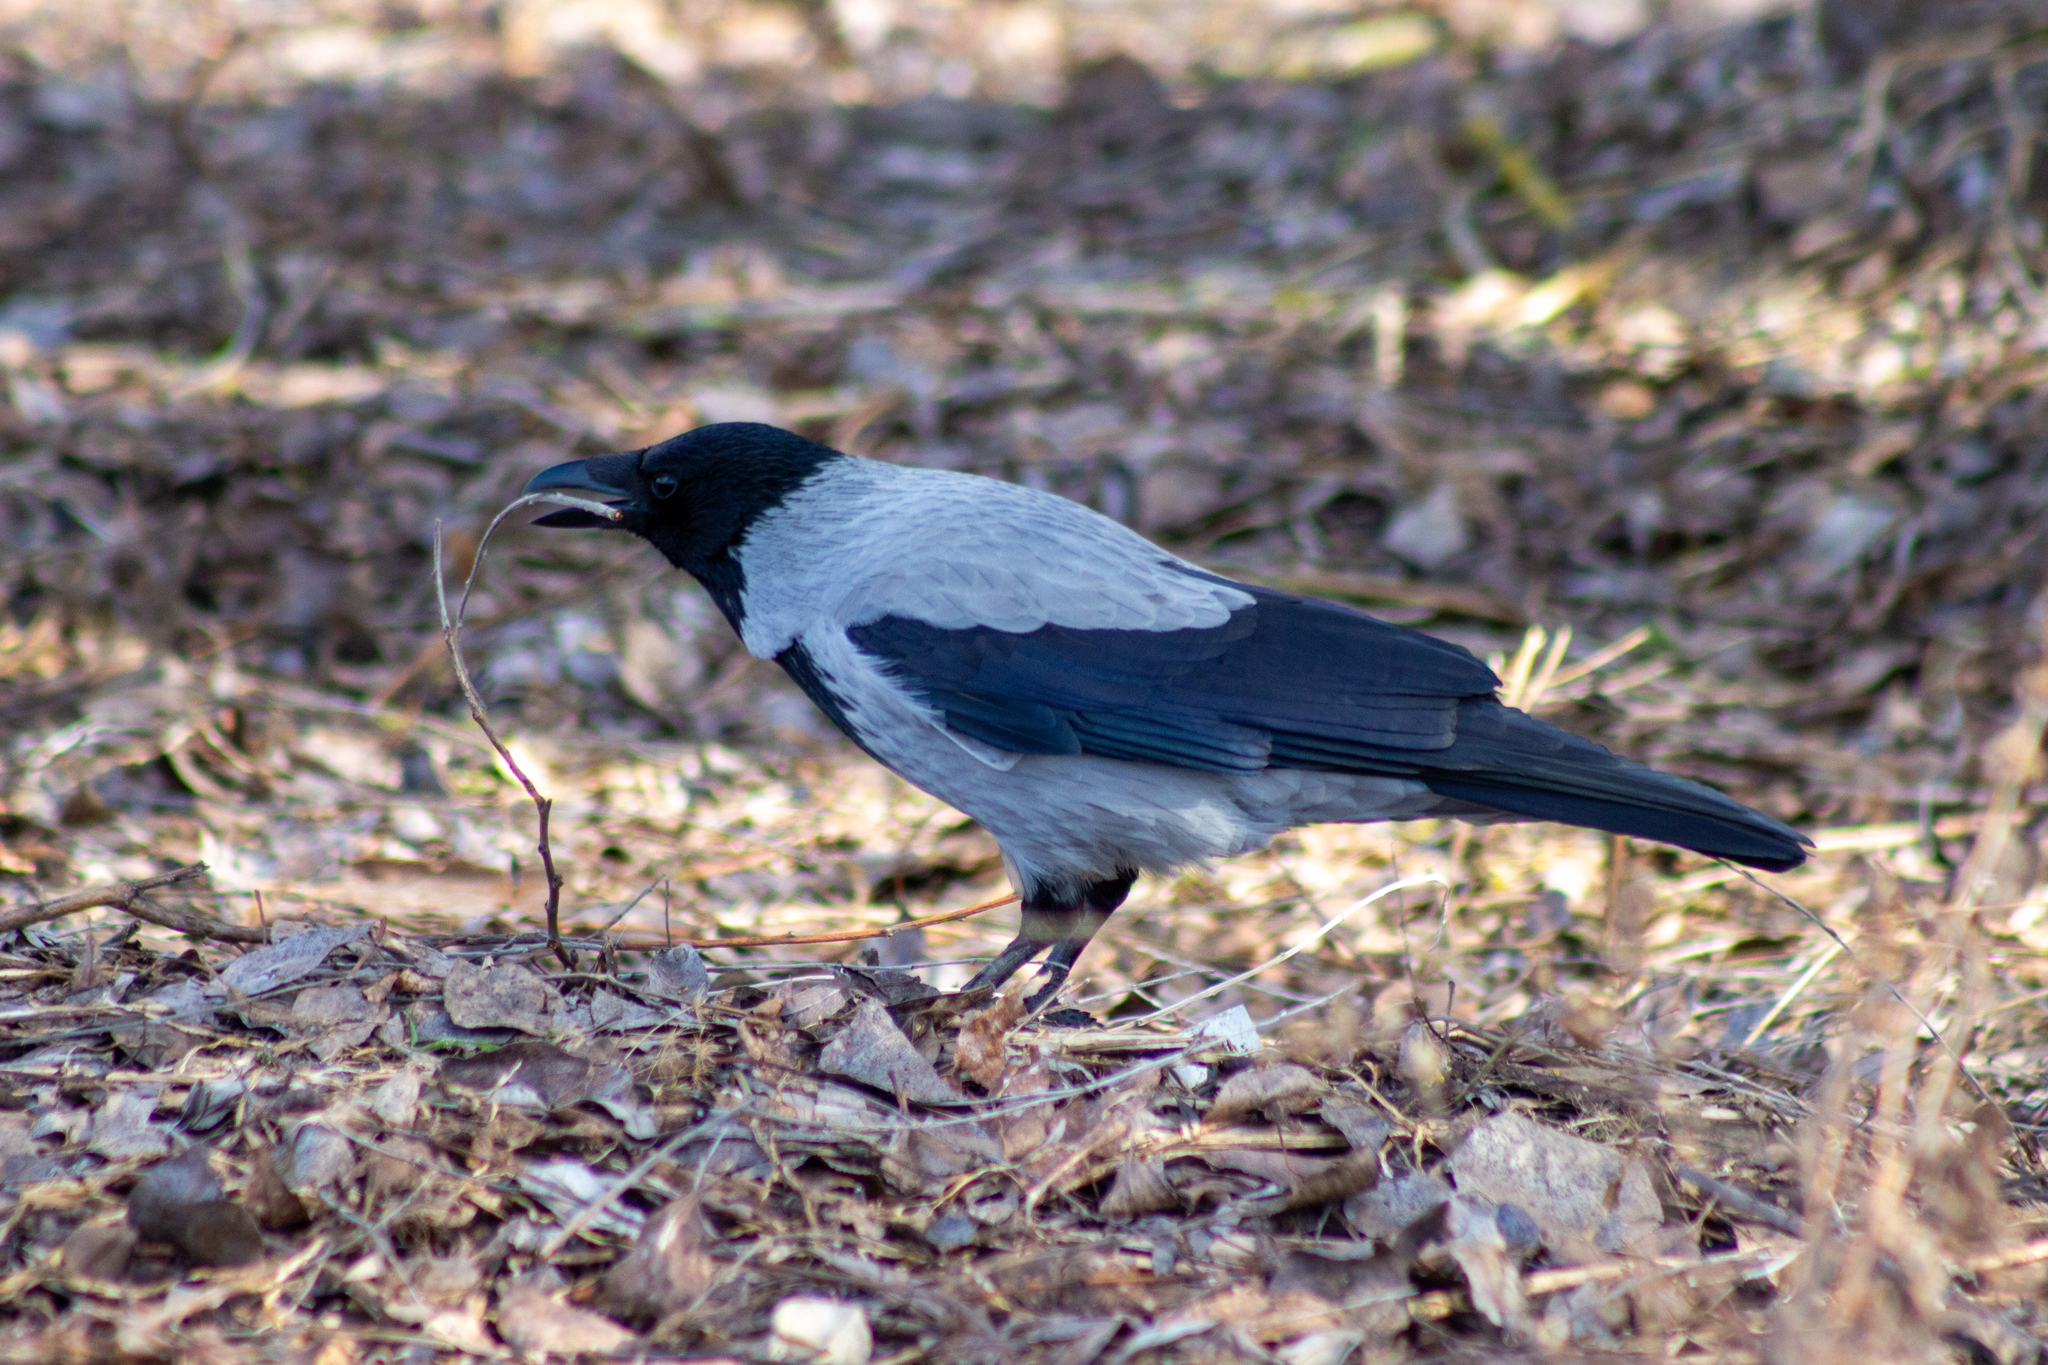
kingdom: Animalia
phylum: Chordata
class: Aves
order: Passeriformes
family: Corvidae
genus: Corvus
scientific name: Corvus cornix
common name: Hooded crow
